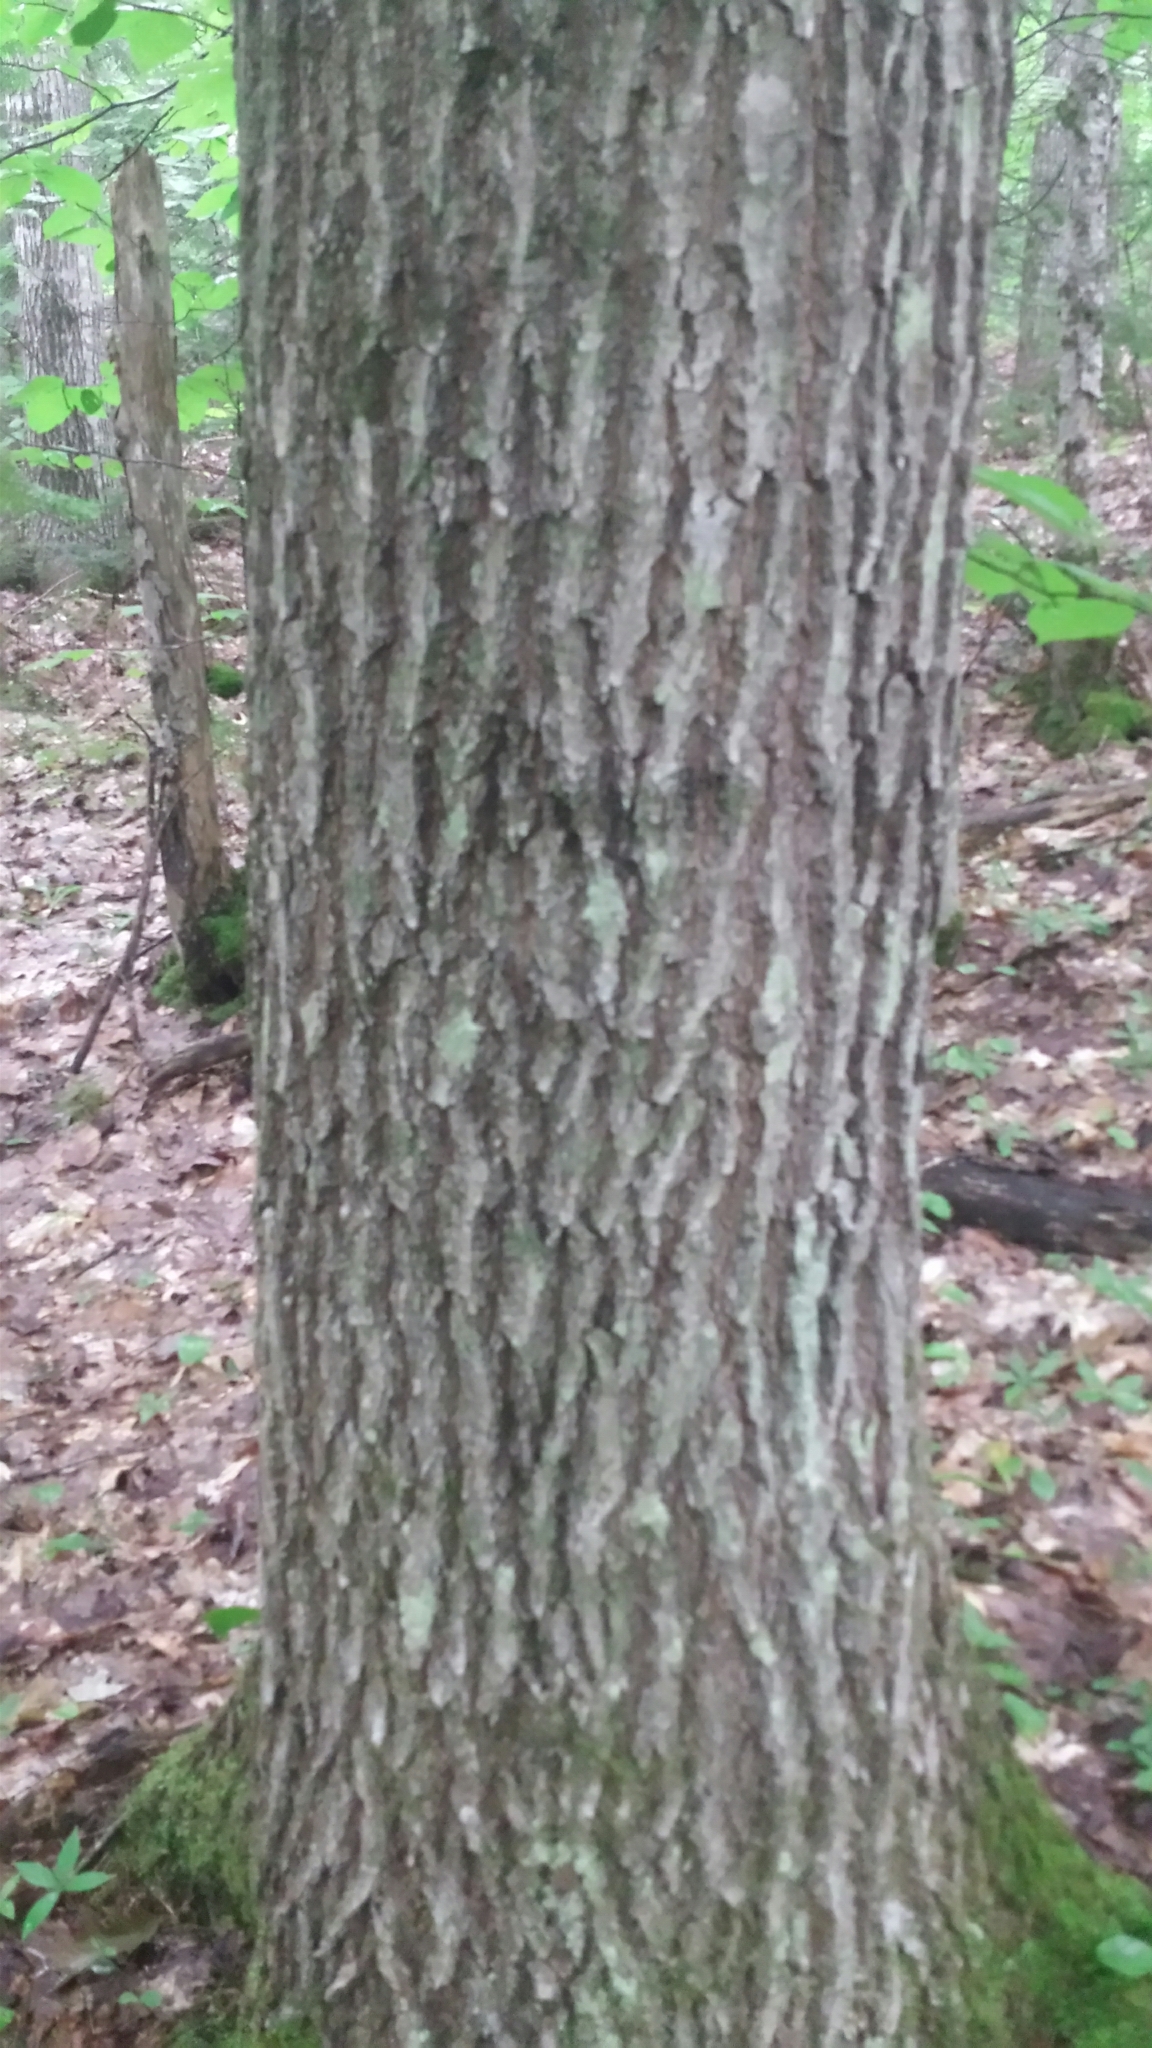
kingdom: Plantae
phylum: Tracheophyta
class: Magnoliopsida
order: Fagales
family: Fagaceae
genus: Quercus
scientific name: Quercus rubra
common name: Red oak
